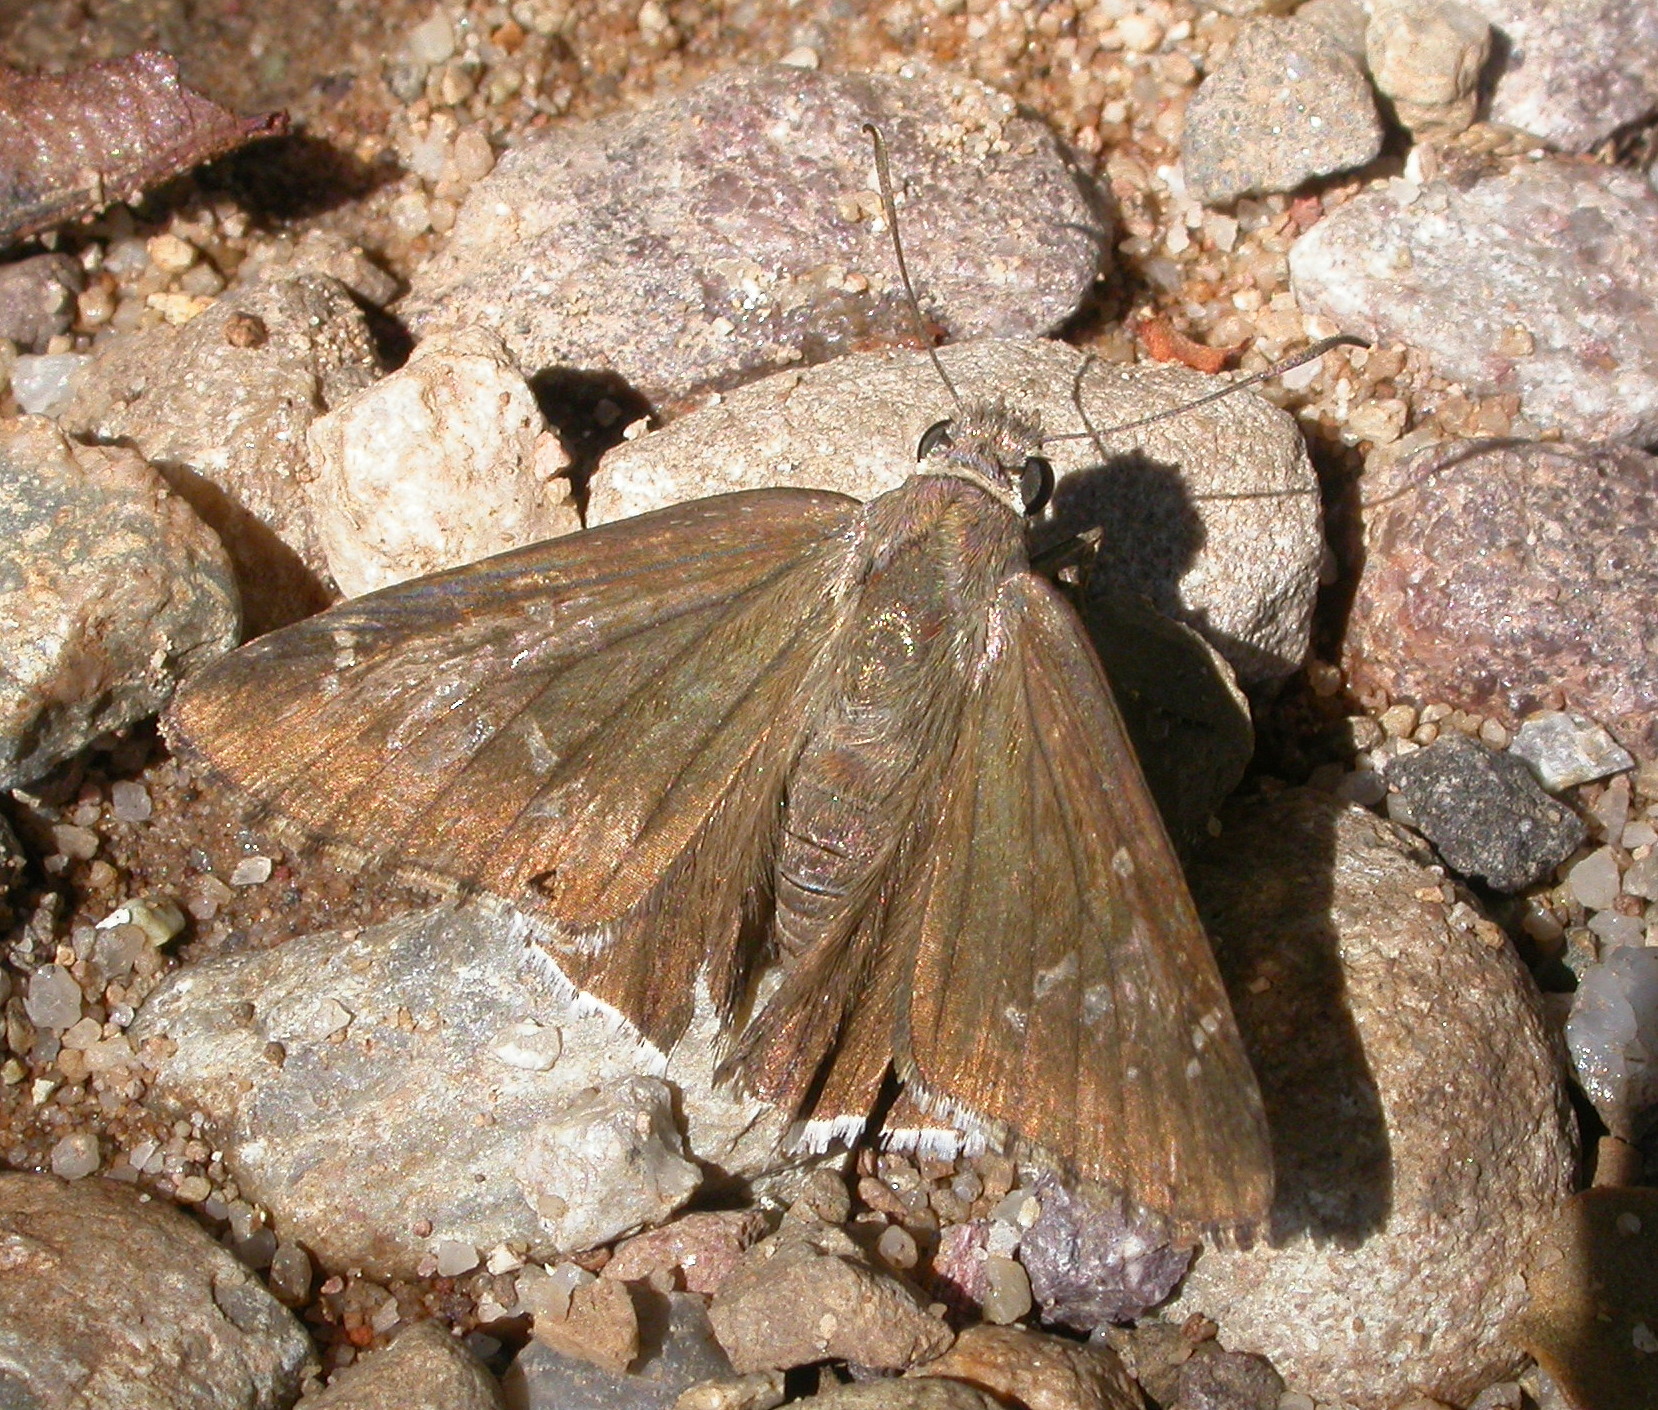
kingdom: Animalia
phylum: Arthropoda
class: Insecta
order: Lepidoptera
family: Hesperiidae
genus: Thorybes
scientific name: Thorybes casica
